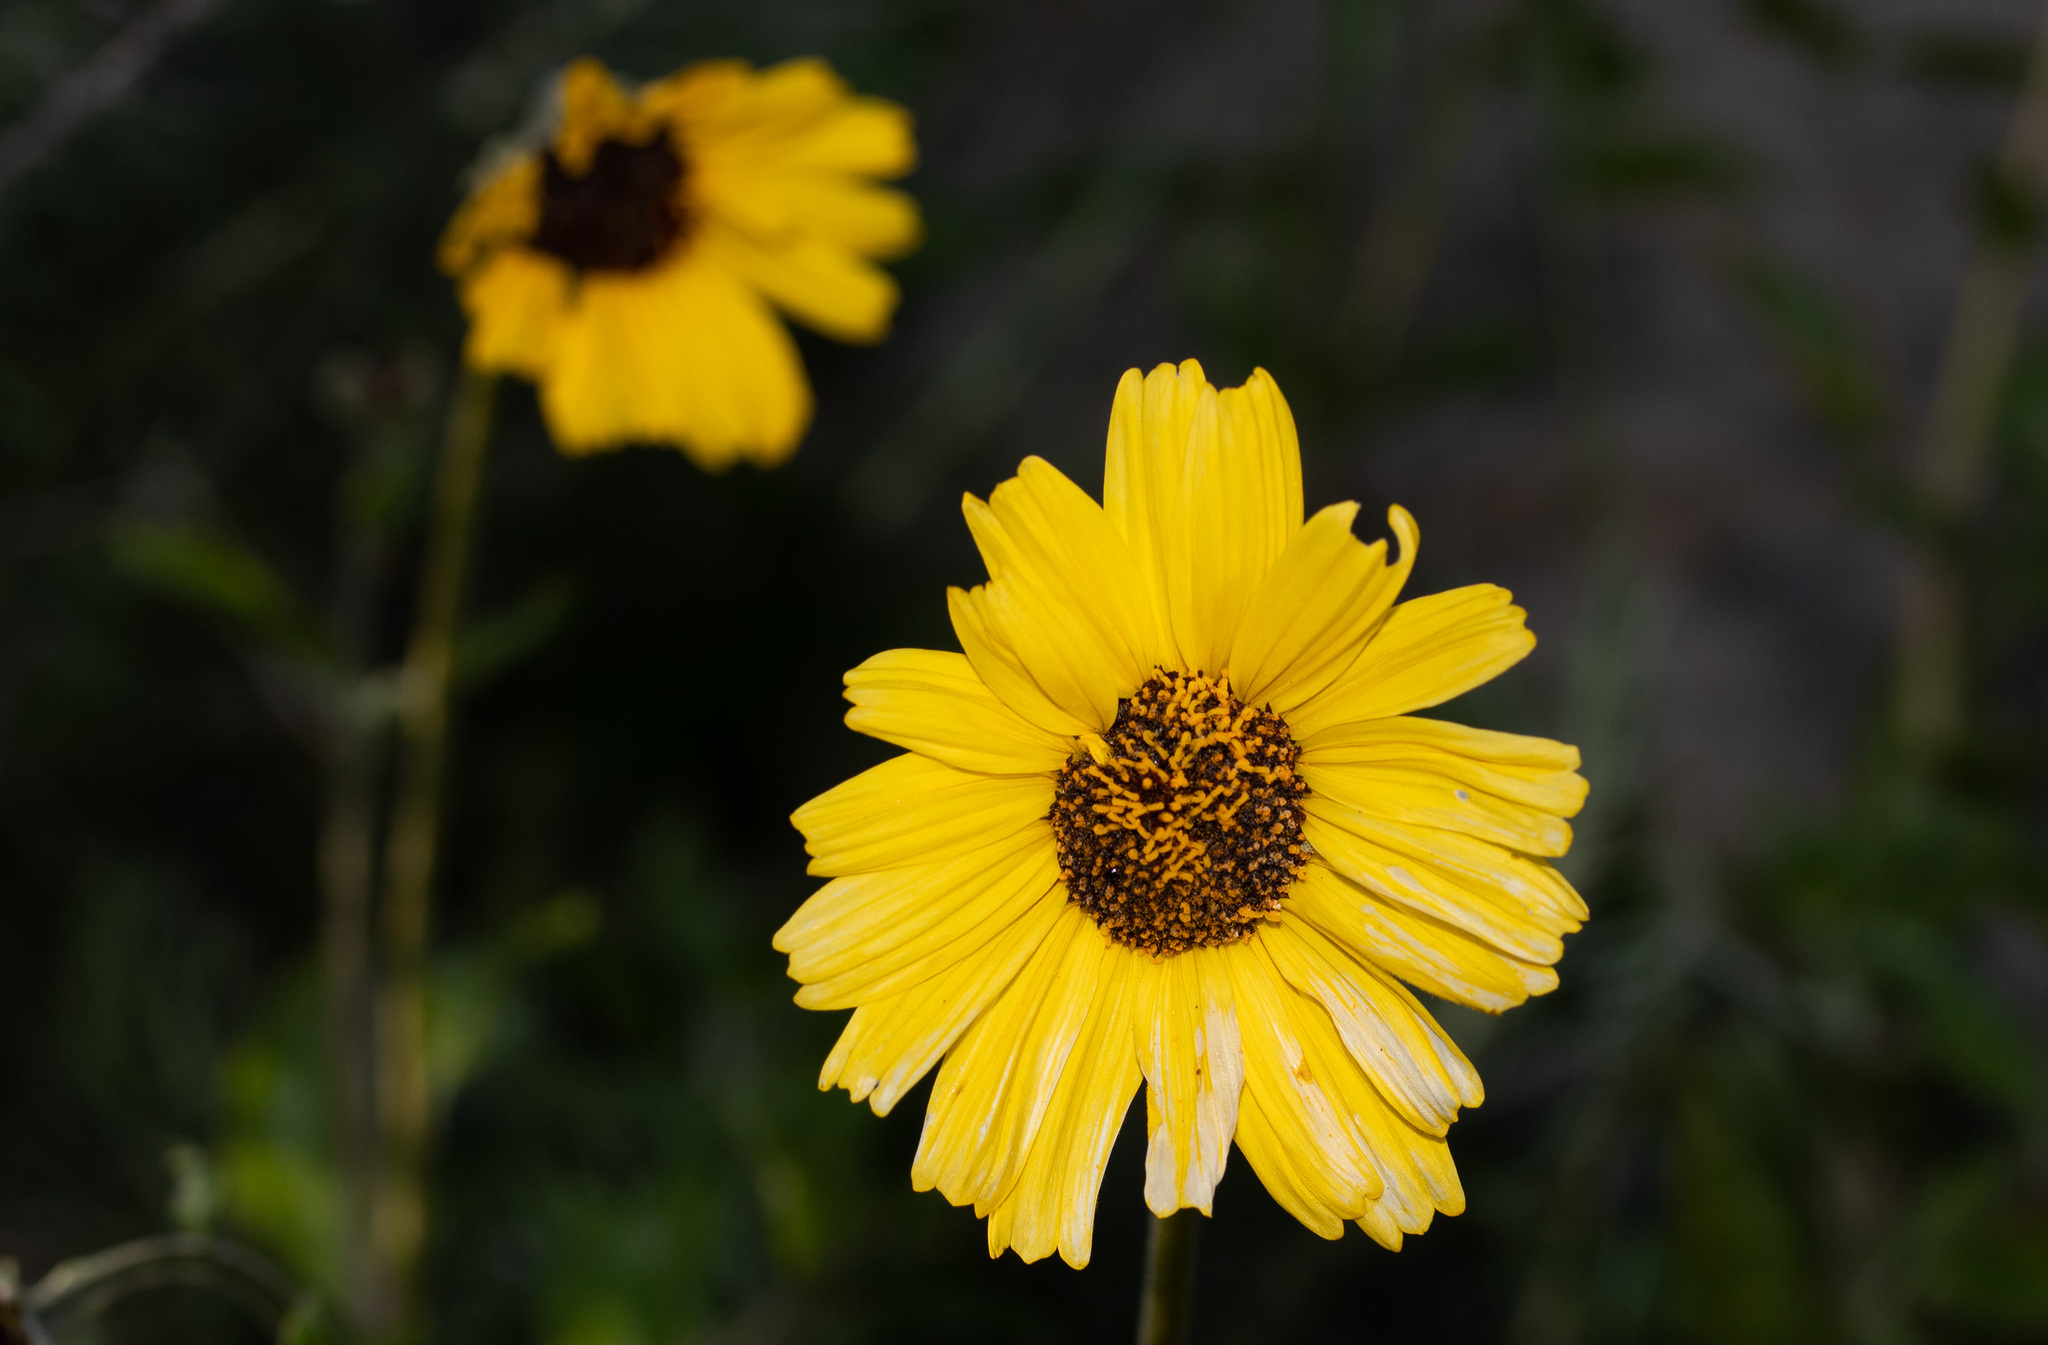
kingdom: Plantae
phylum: Tracheophyta
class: Magnoliopsida
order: Asterales
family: Asteraceae
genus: Encelia
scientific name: Encelia californica
